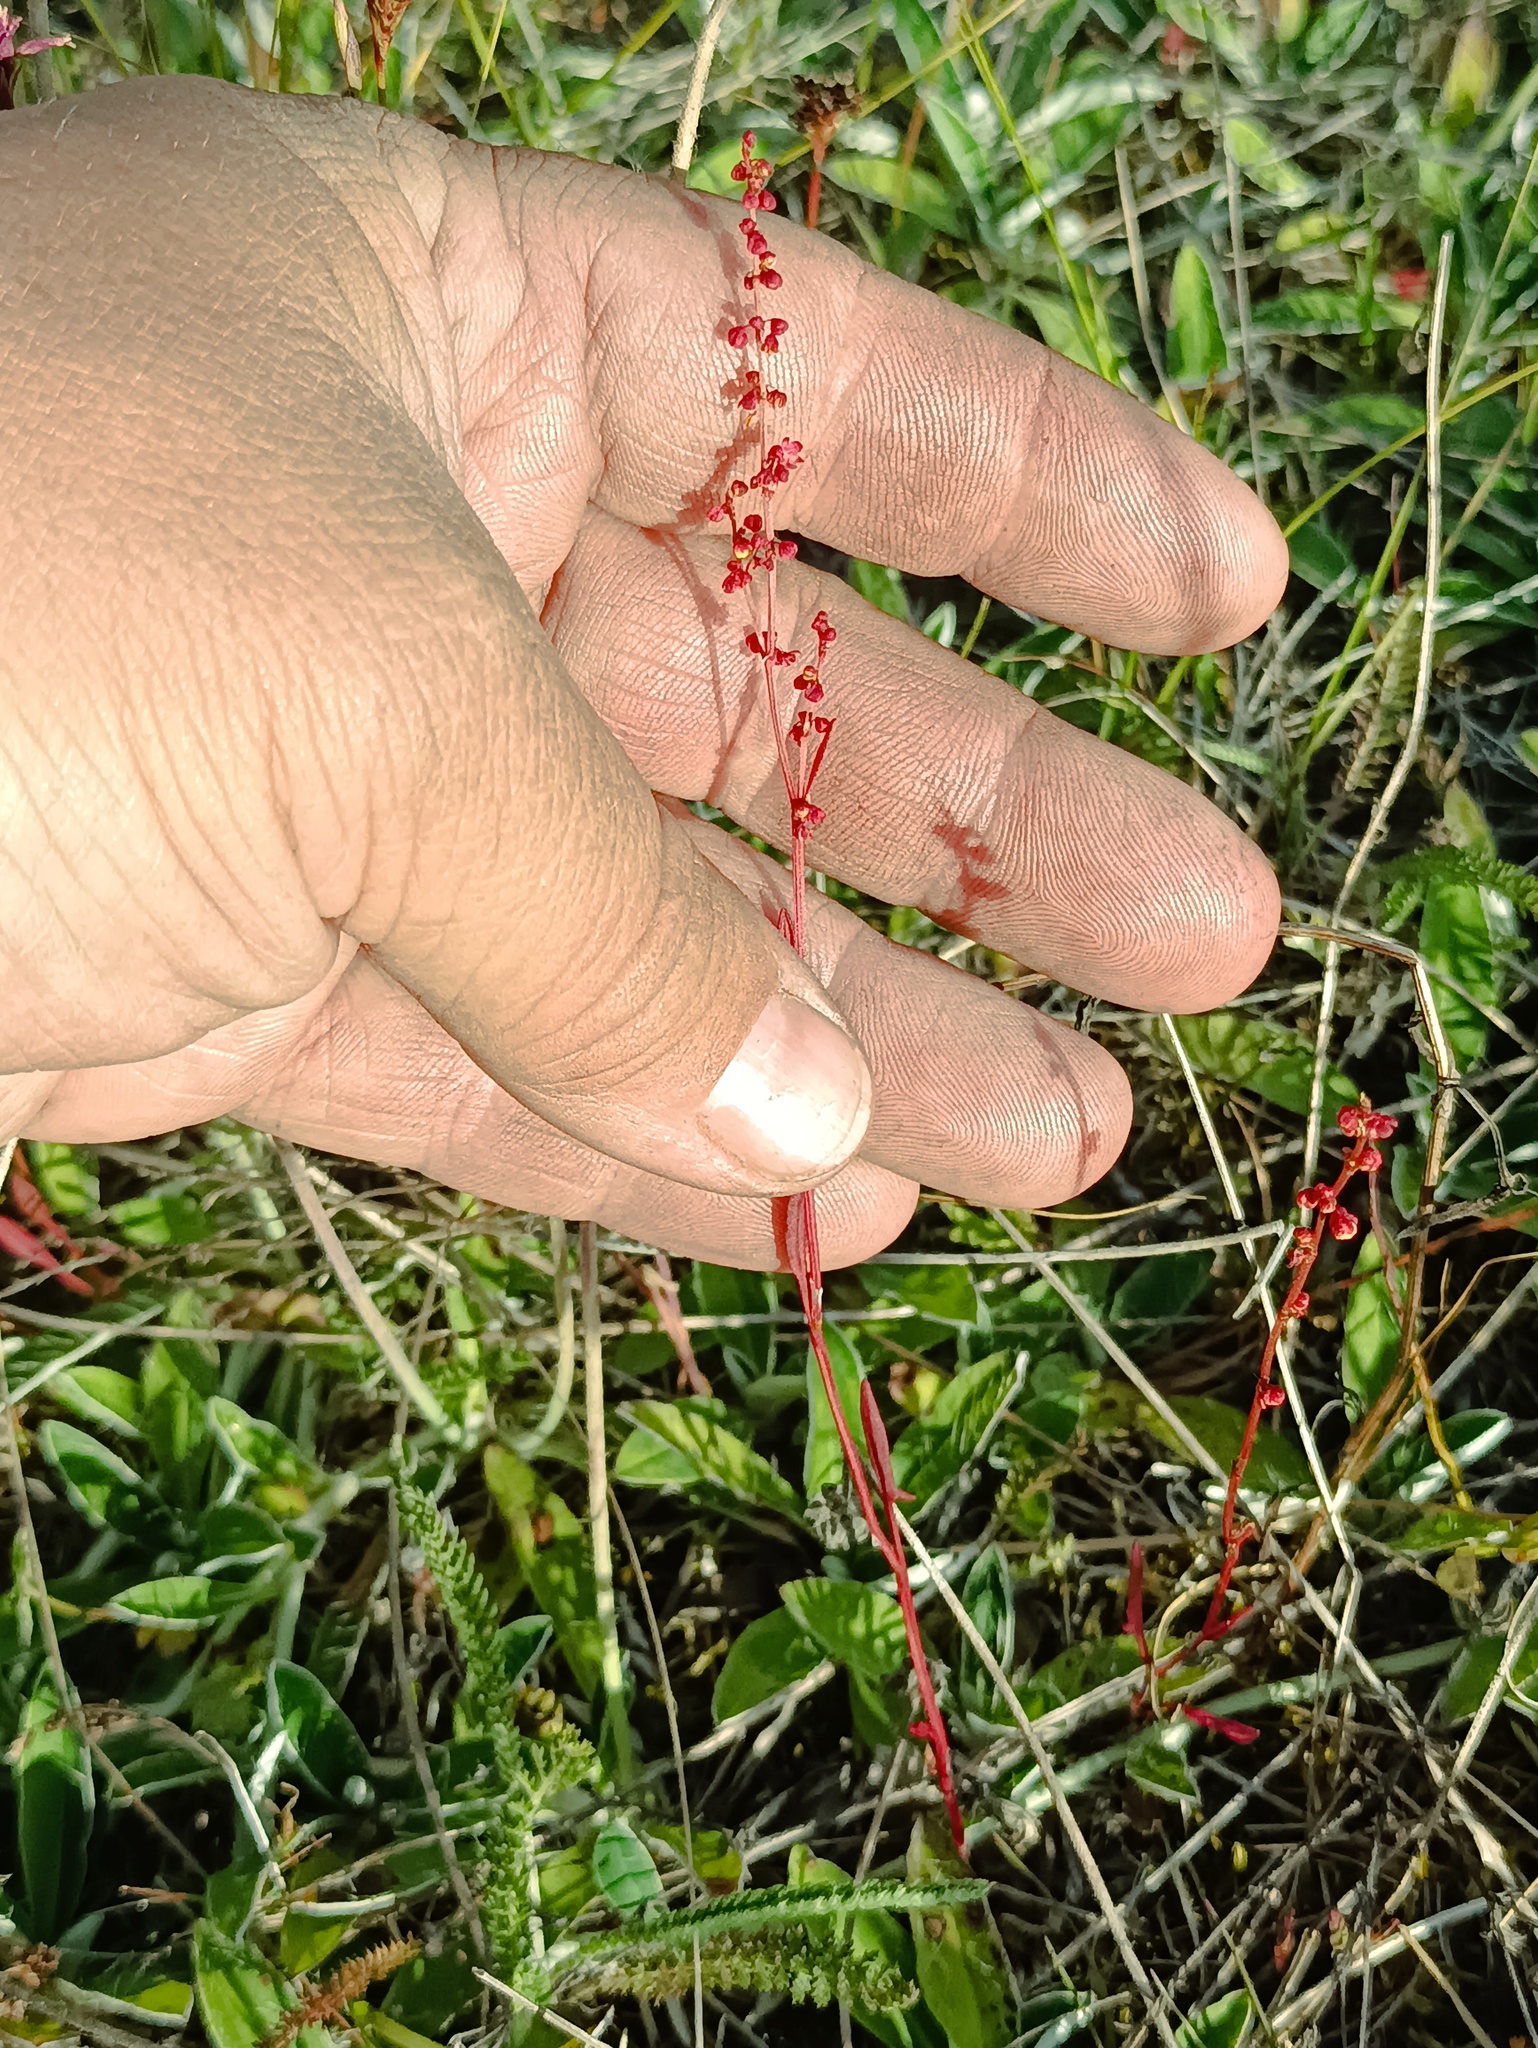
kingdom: Plantae
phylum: Tracheophyta
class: Magnoliopsida
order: Caryophyllales
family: Polygonaceae
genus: Rumex
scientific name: Rumex acetosella
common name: Common sheep sorrel
